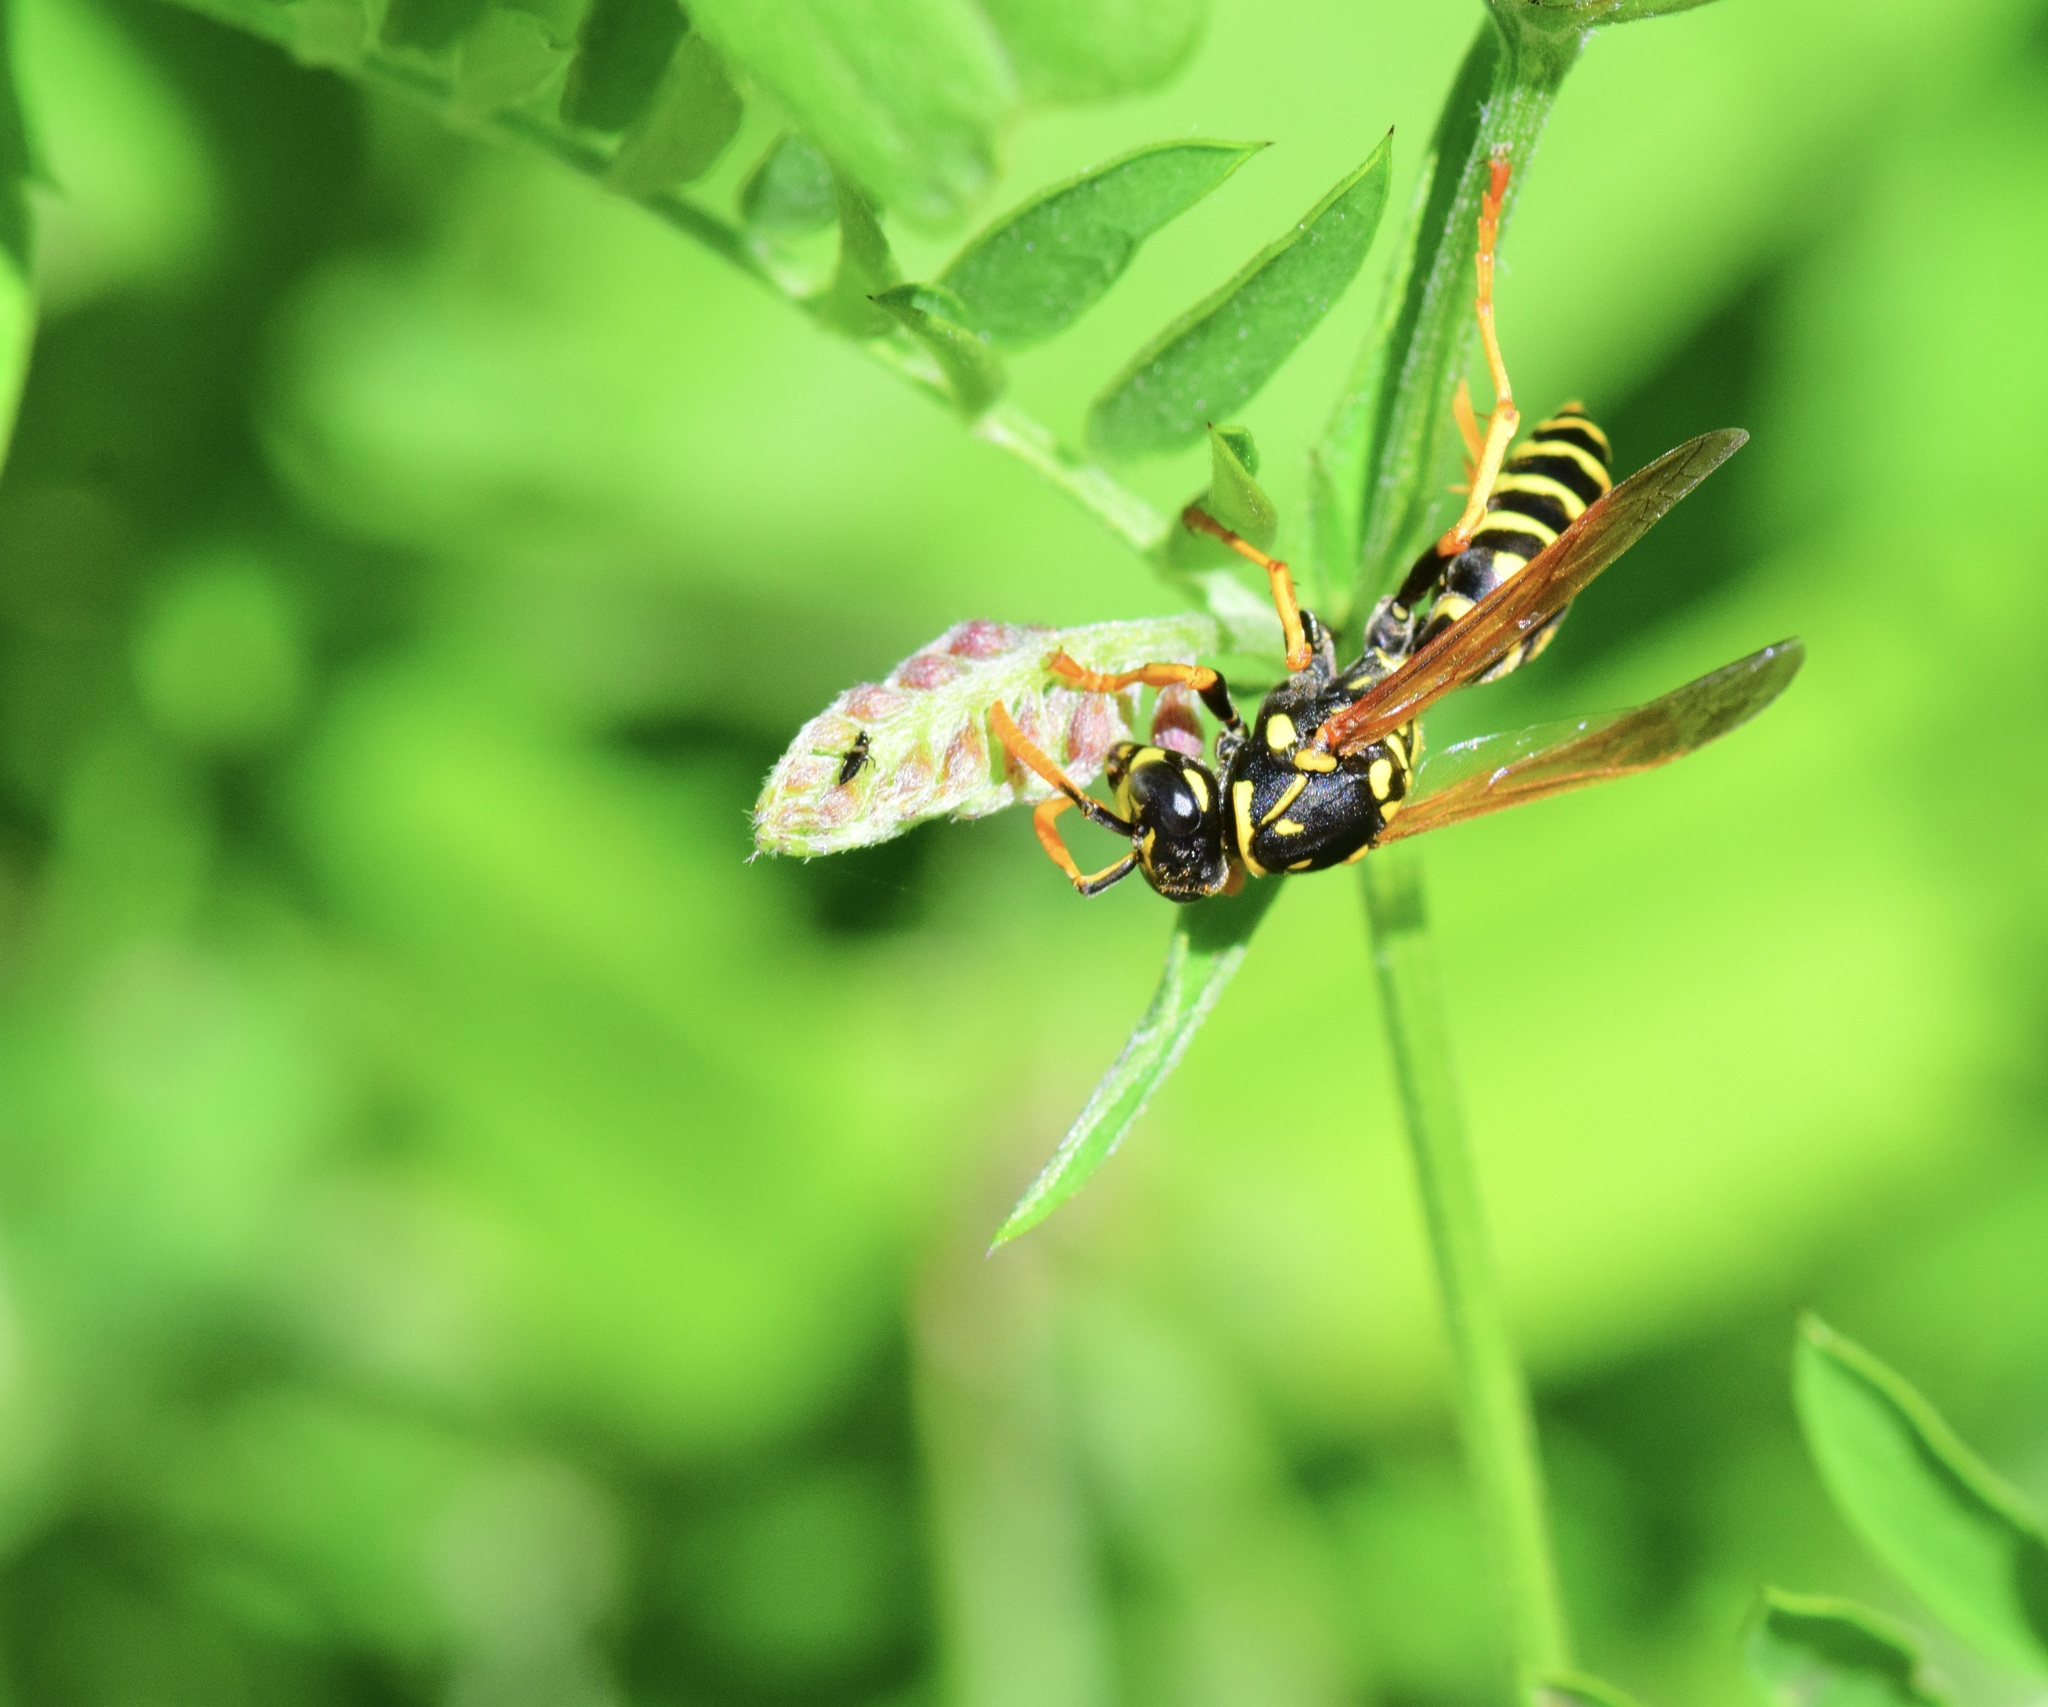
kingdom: Animalia
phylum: Arthropoda
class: Insecta
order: Hymenoptera
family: Eumenidae
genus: Polistes
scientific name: Polistes dominula
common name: Paper wasp
